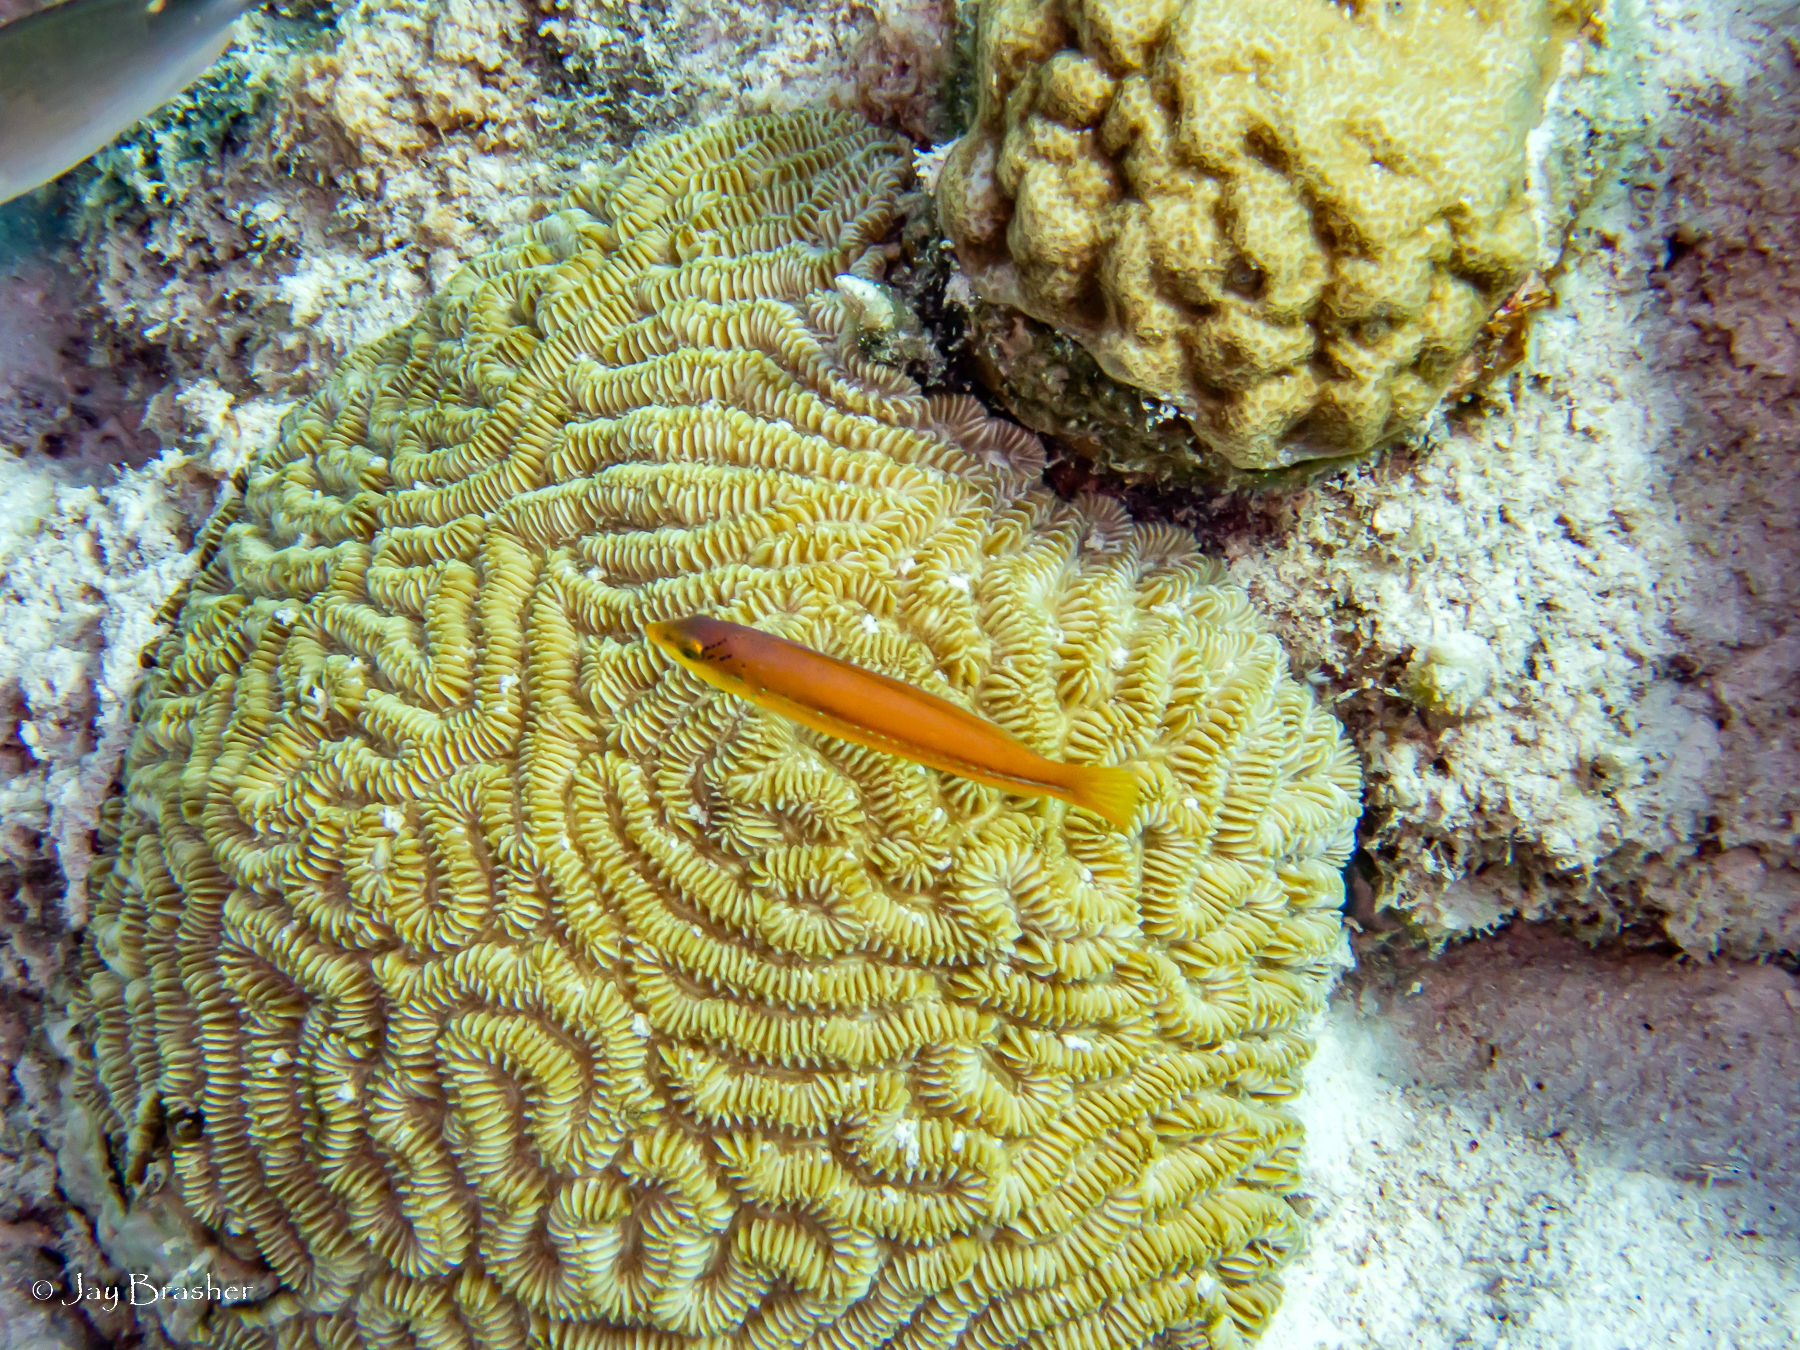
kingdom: Animalia
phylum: Chordata
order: Perciformes
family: Labridae
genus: Halichoeres
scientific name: Halichoeres garnoti
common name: Yellowhead wrasse
